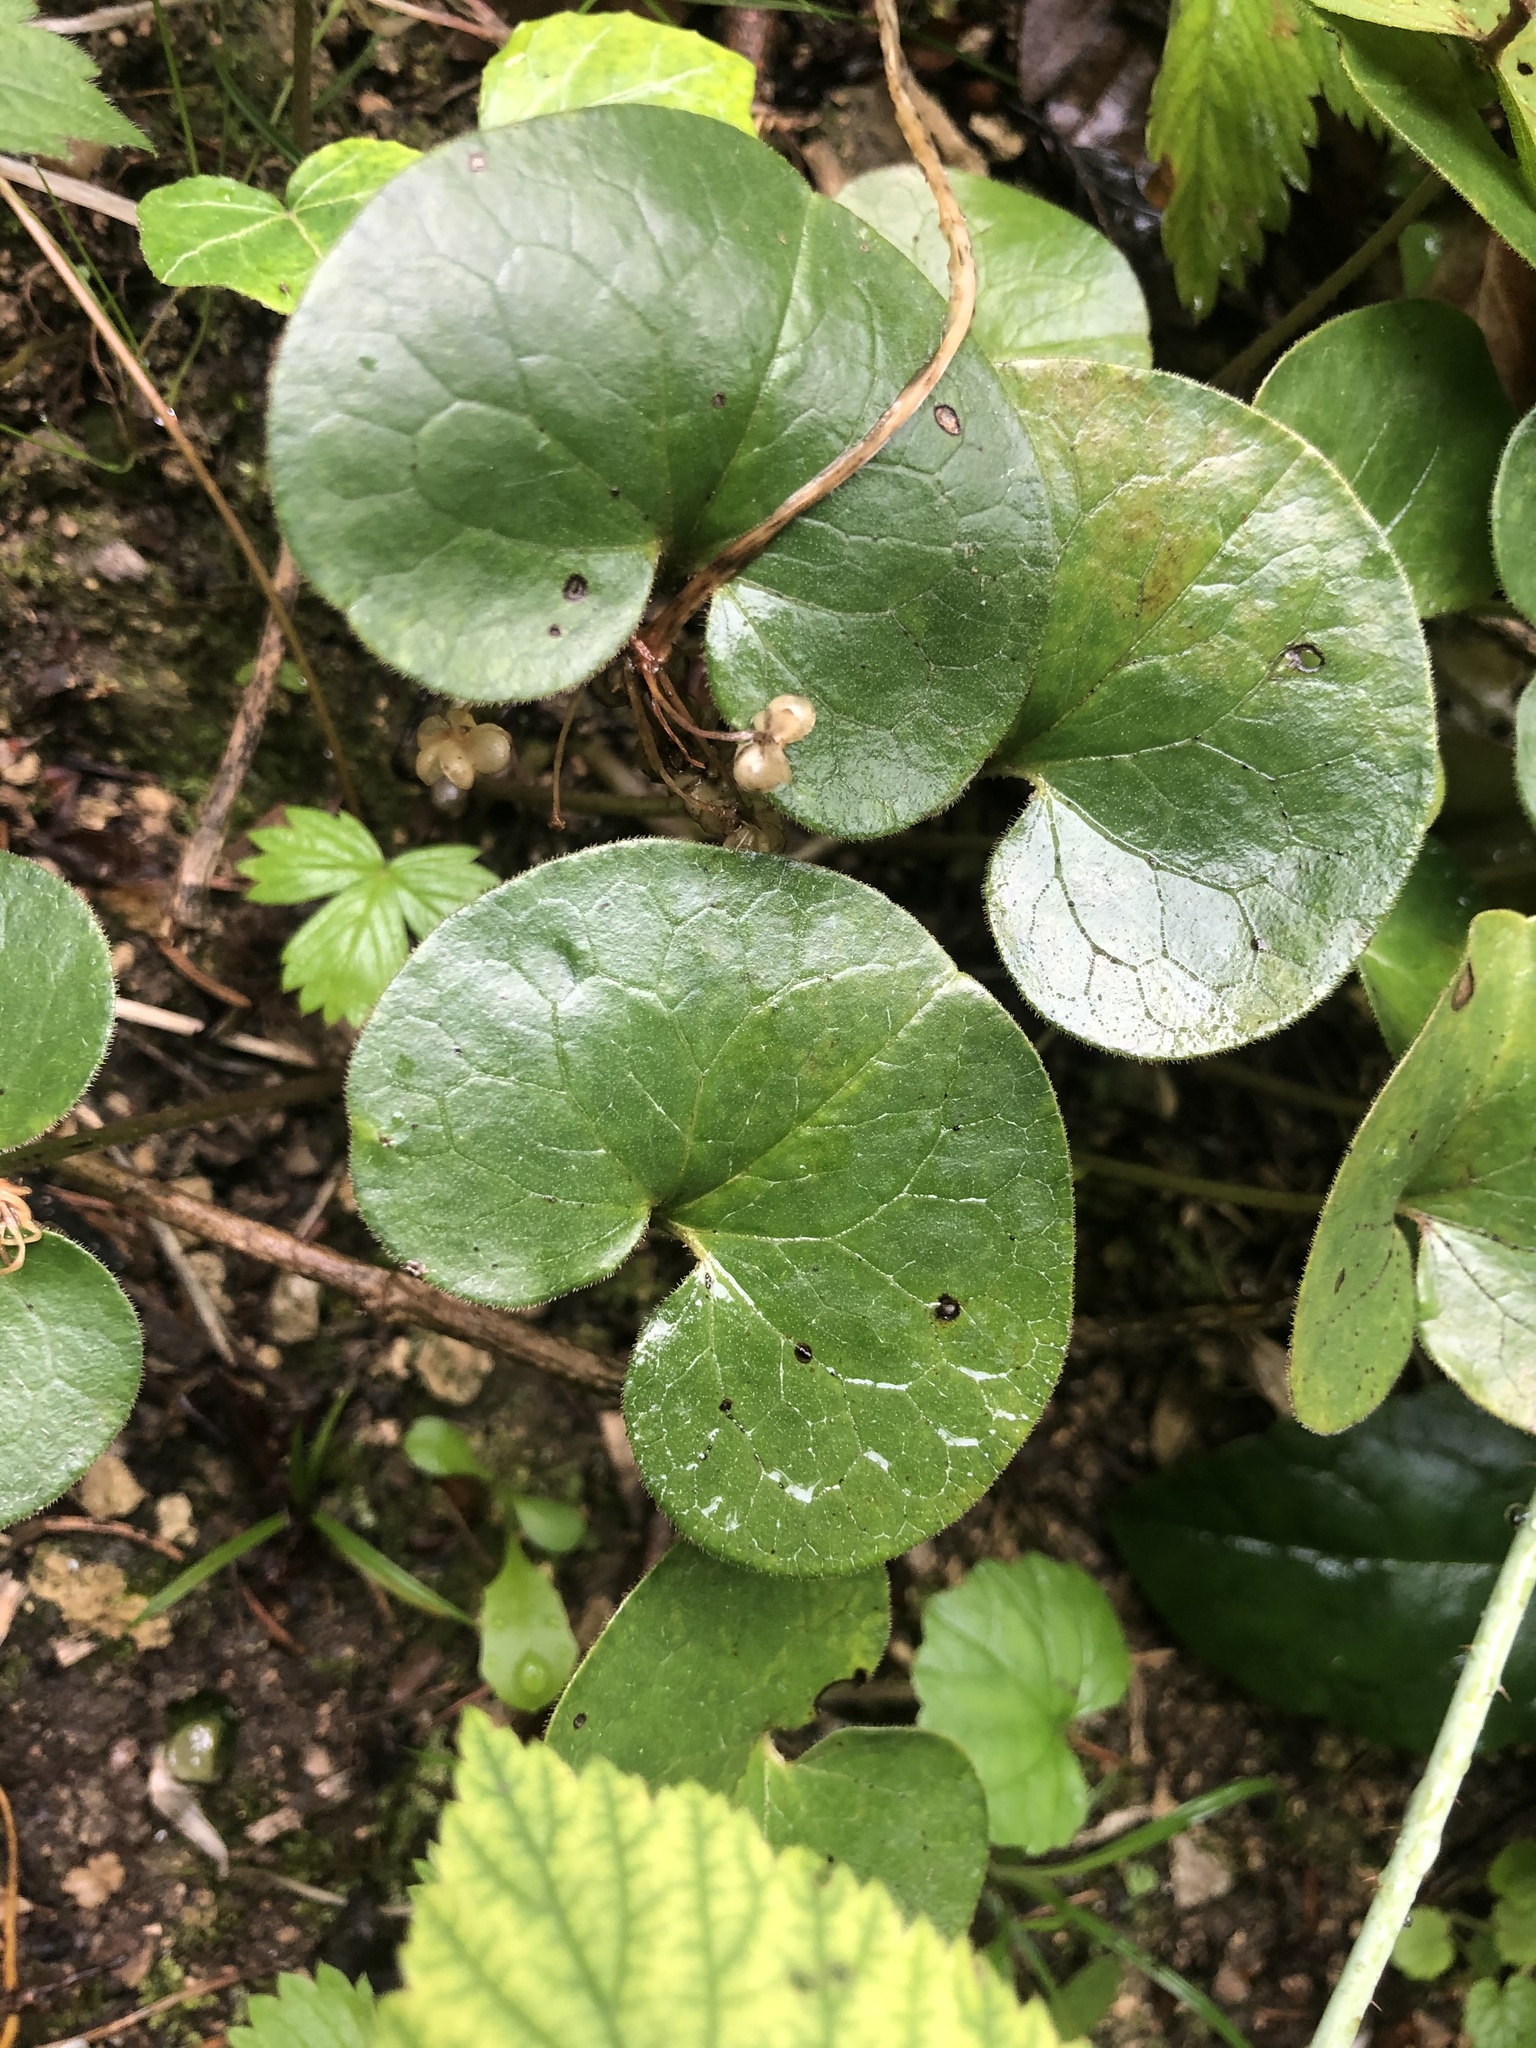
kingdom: Plantae
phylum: Tracheophyta
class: Magnoliopsida
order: Piperales
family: Aristolochiaceae
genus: Asarum
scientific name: Asarum europaeum
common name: Asarabacca
